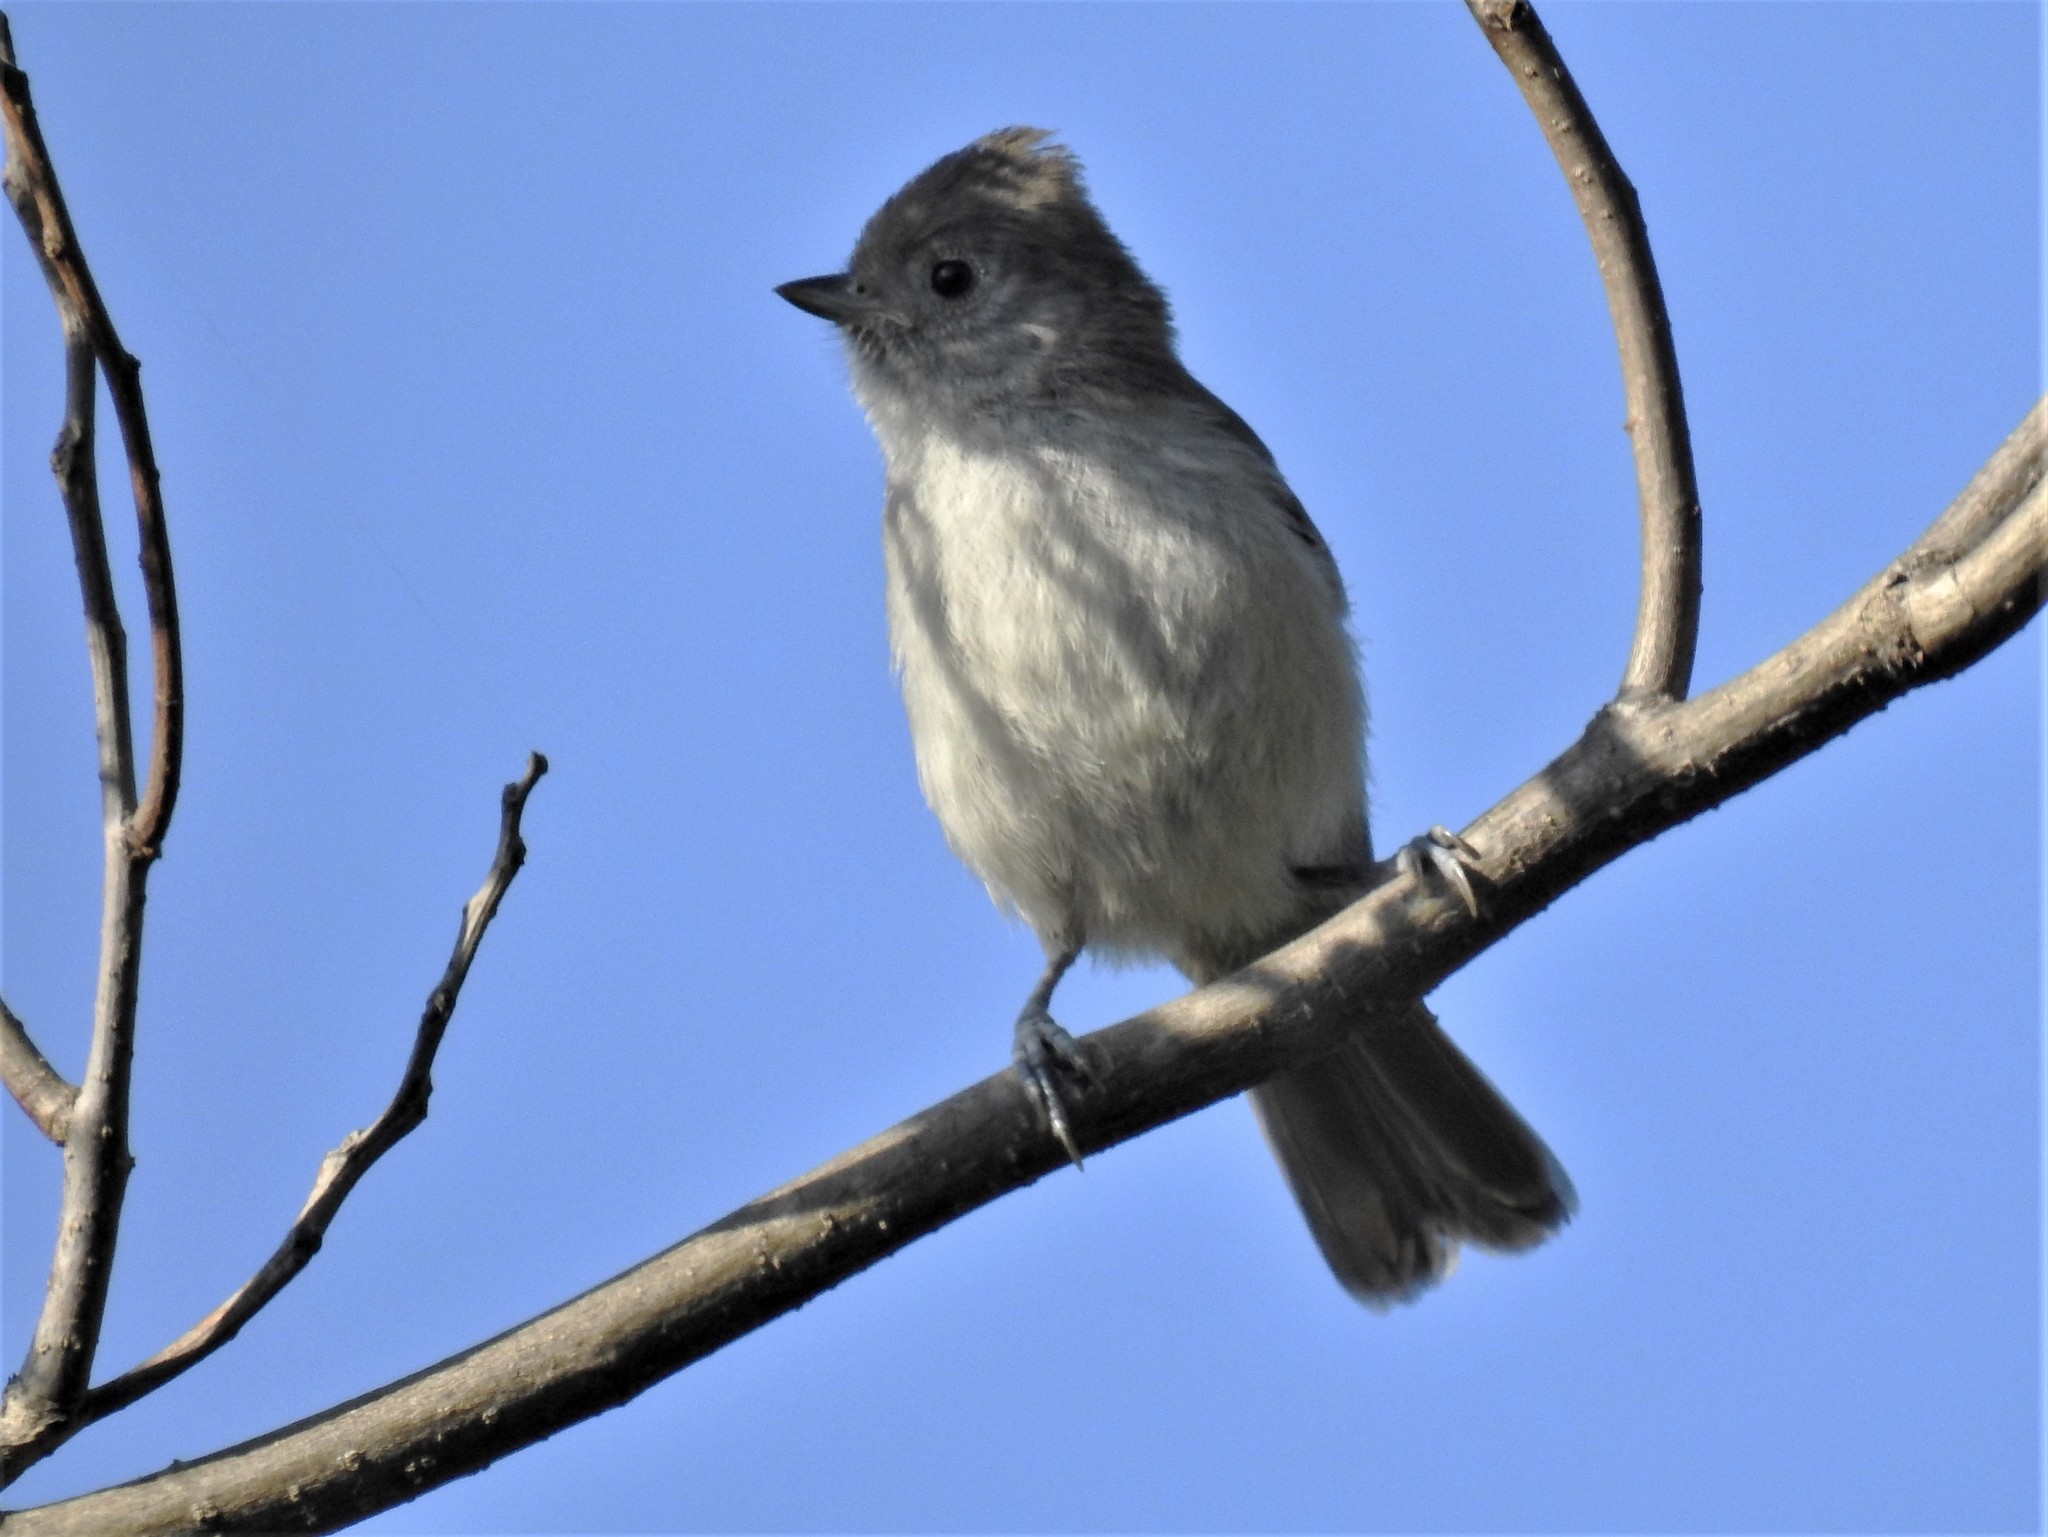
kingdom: Animalia
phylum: Chordata
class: Aves
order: Passeriformes
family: Paridae
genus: Baeolophus
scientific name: Baeolophus inornatus
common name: Oak titmouse
